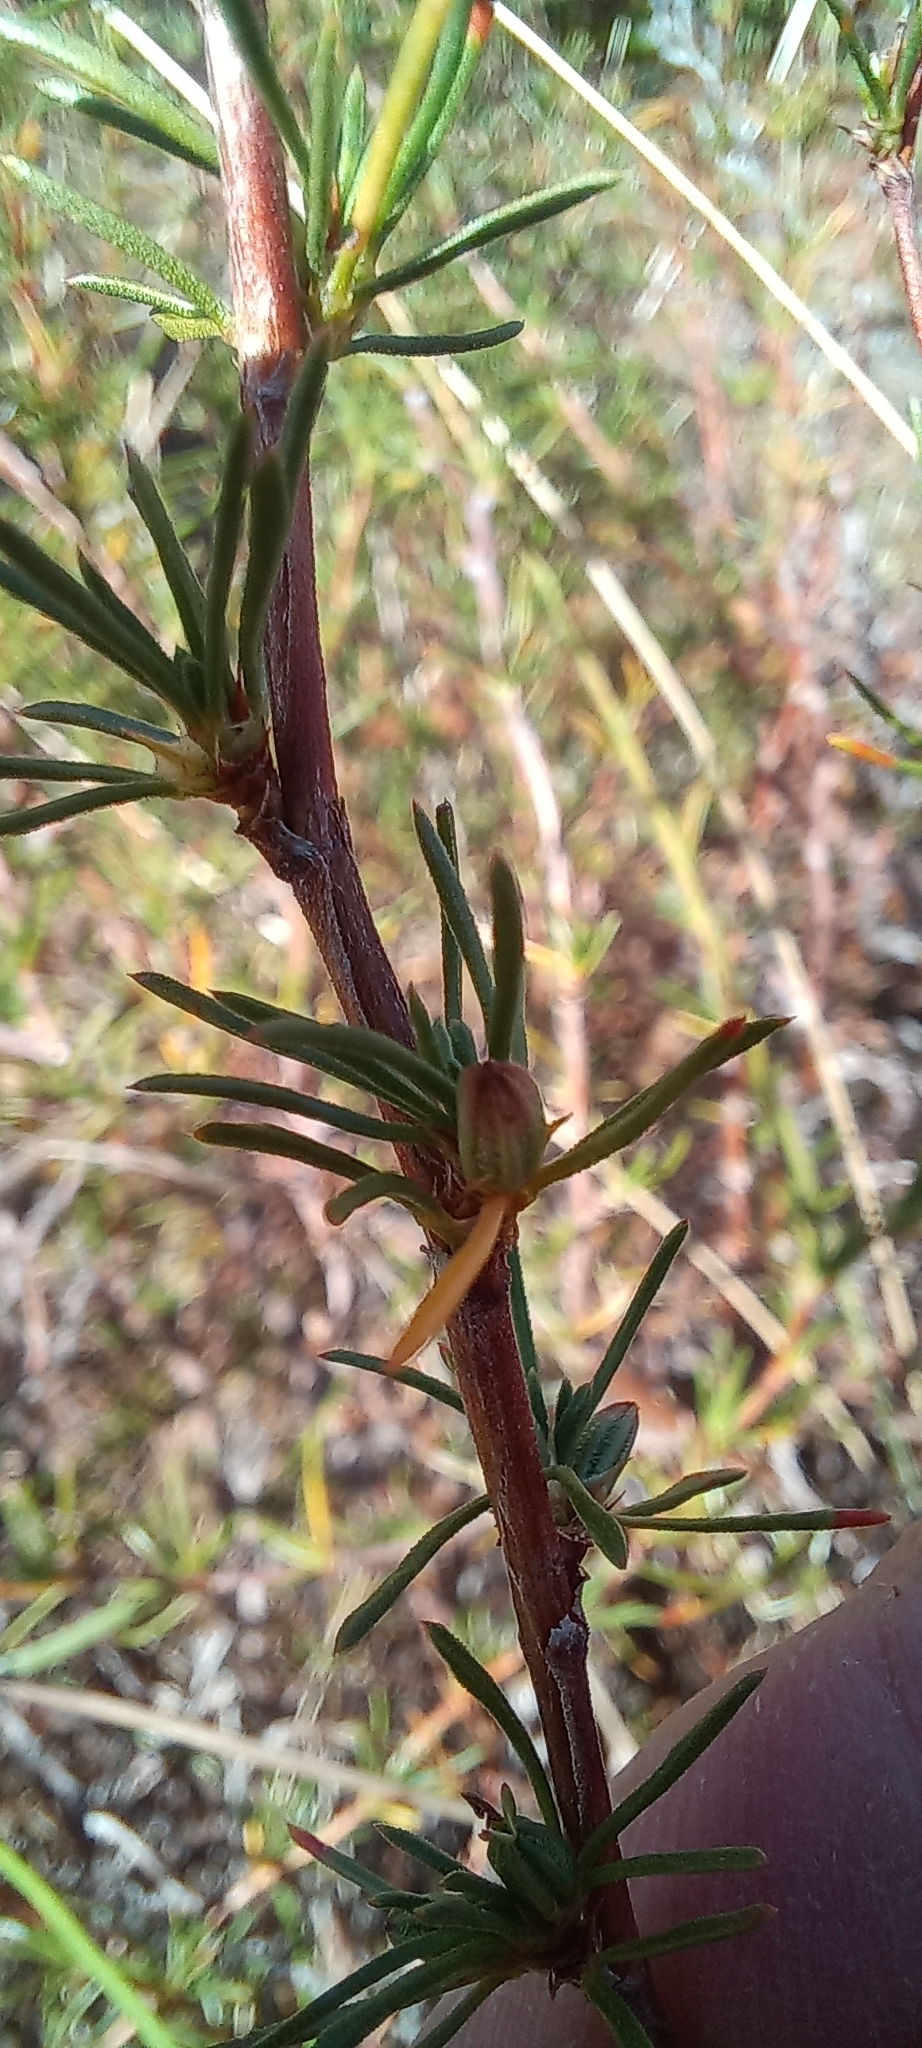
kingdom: Plantae
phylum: Tracheophyta
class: Magnoliopsida
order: Rosales
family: Rosaceae
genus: Cliffortia
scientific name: Cliffortia juniperina
